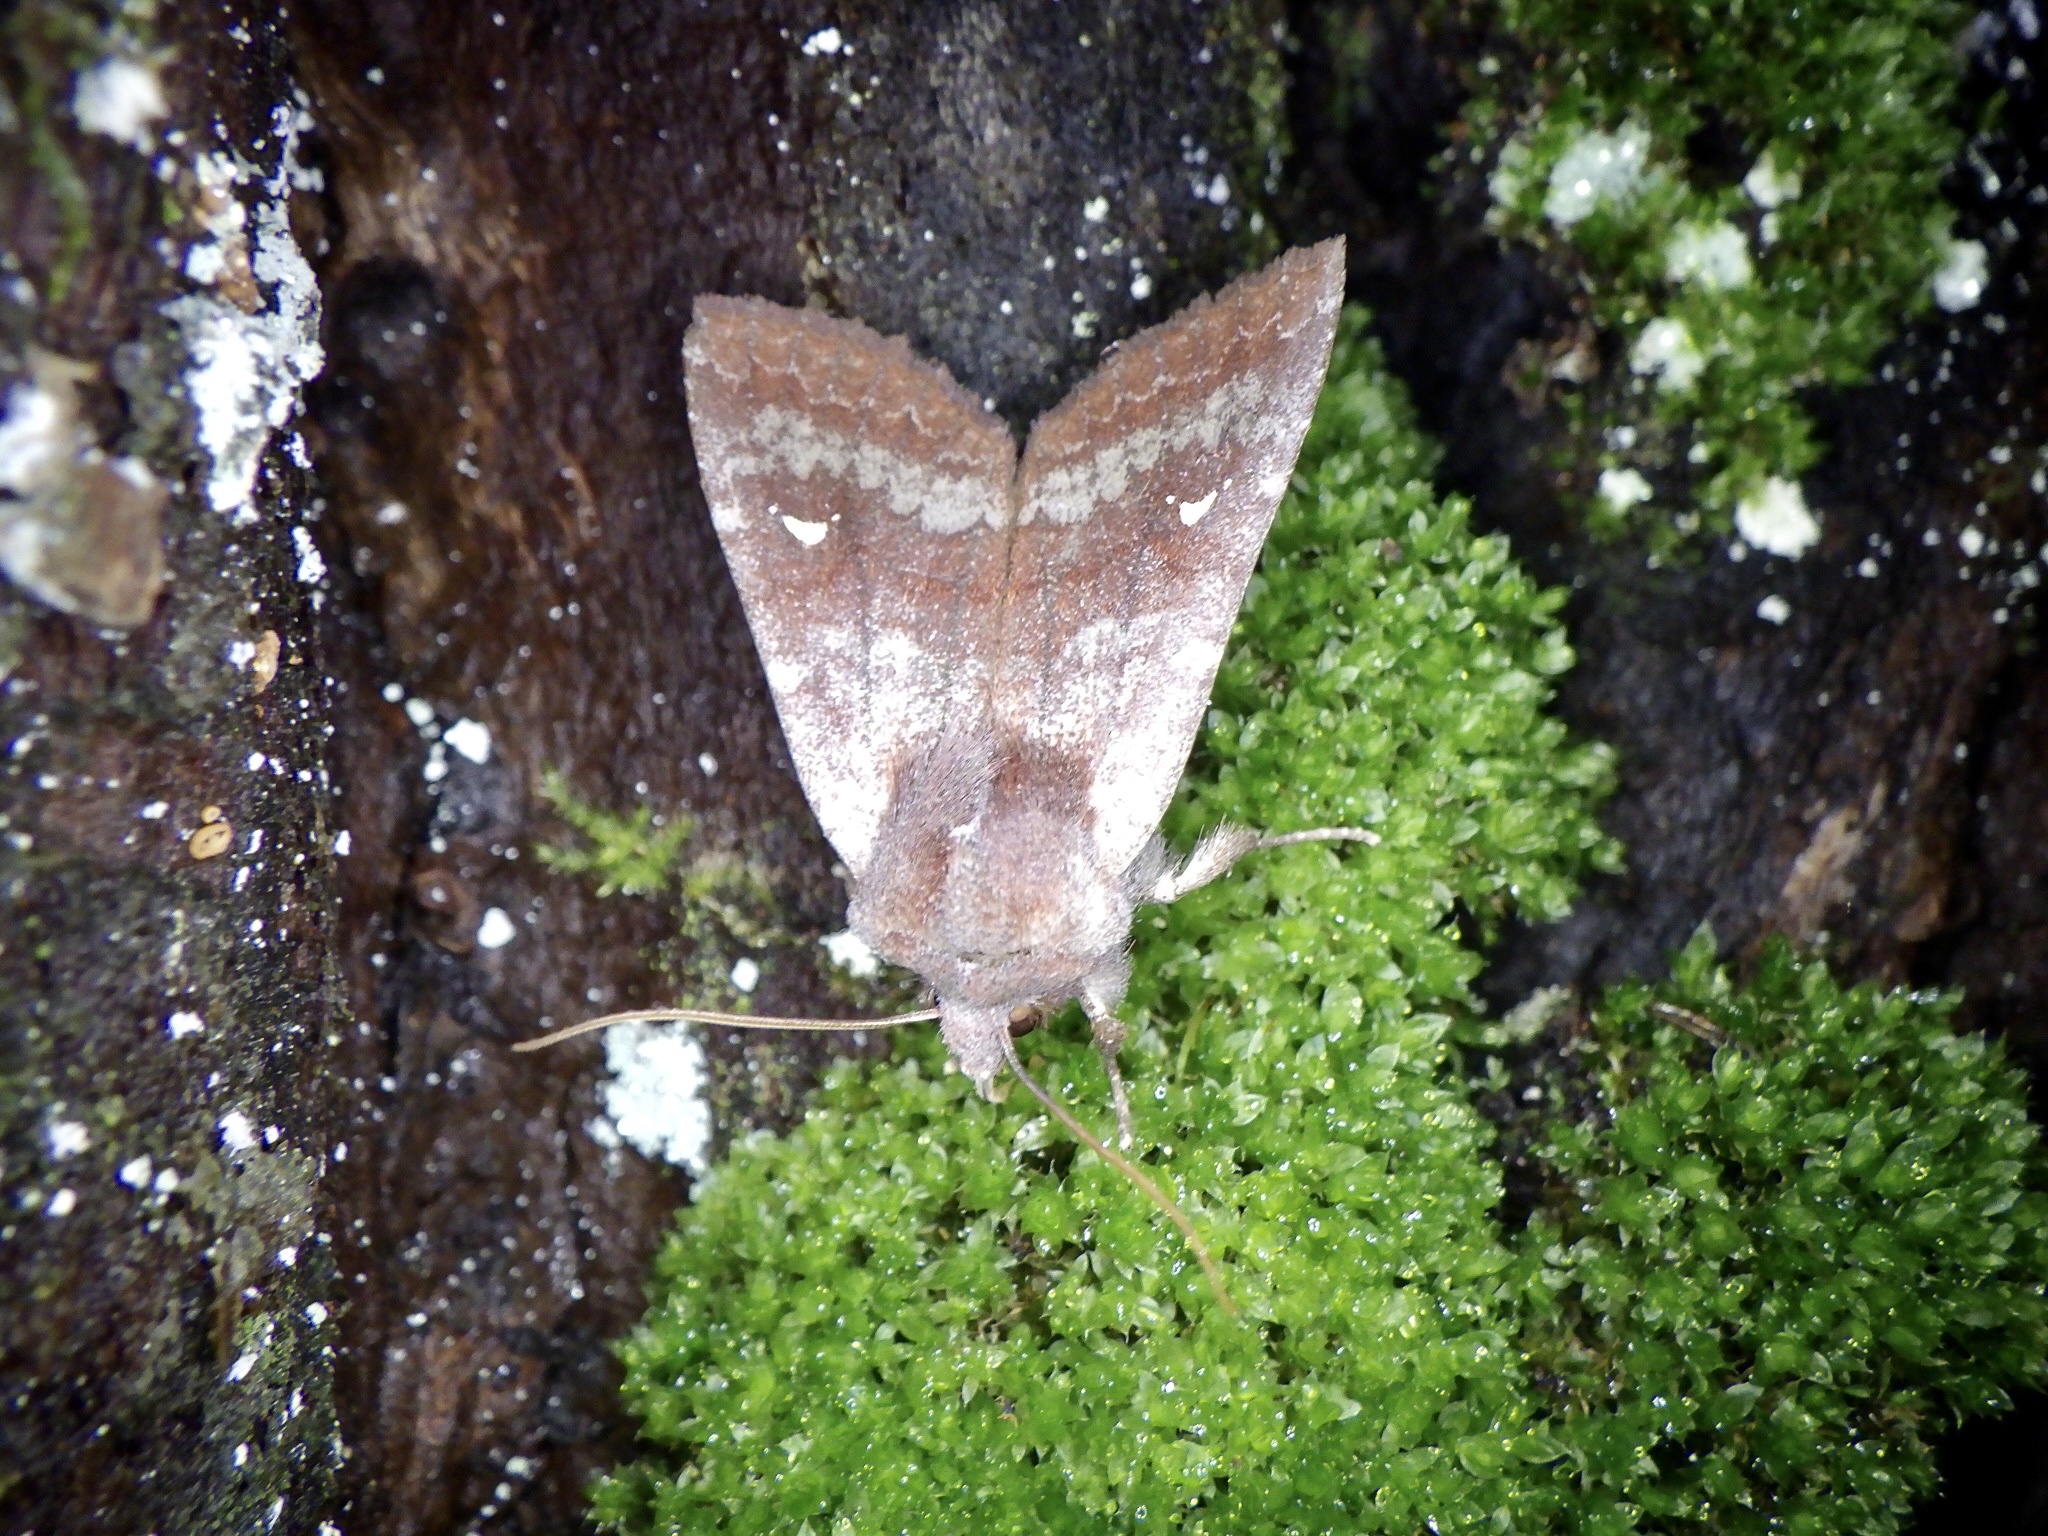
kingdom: Animalia
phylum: Arthropoda
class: Insecta
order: Lepidoptera
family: Noctuidae
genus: Eupsilia
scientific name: Eupsilia unipuncta
